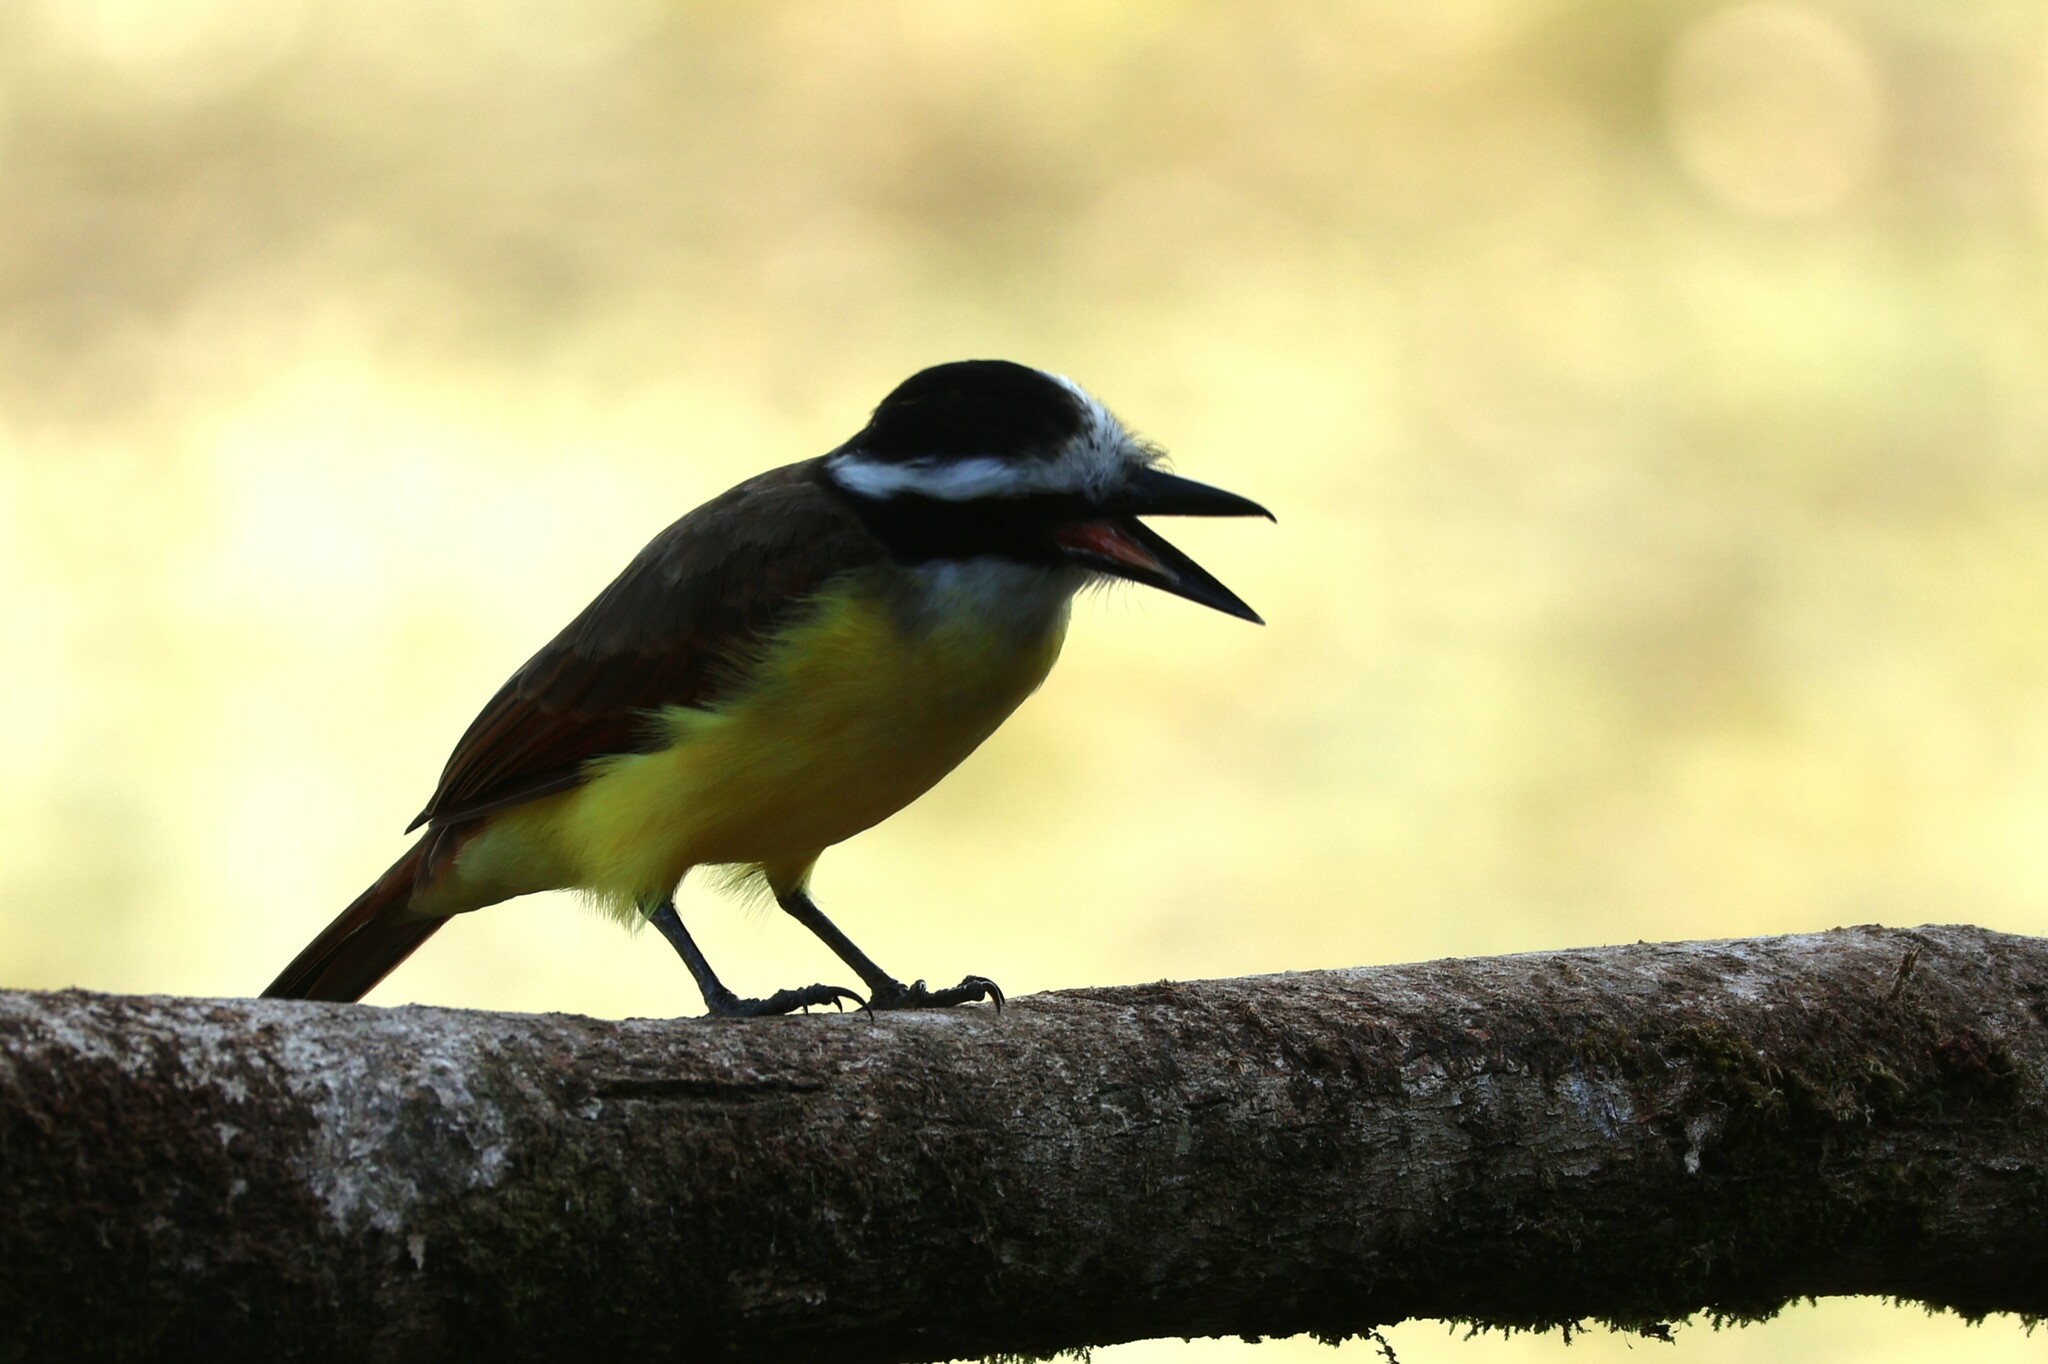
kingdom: Animalia
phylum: Chordata
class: Aves
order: Passeriformes
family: Tyrannidae
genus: Pitangus
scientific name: Pitangus sulphuratus
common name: Great kiskadee
